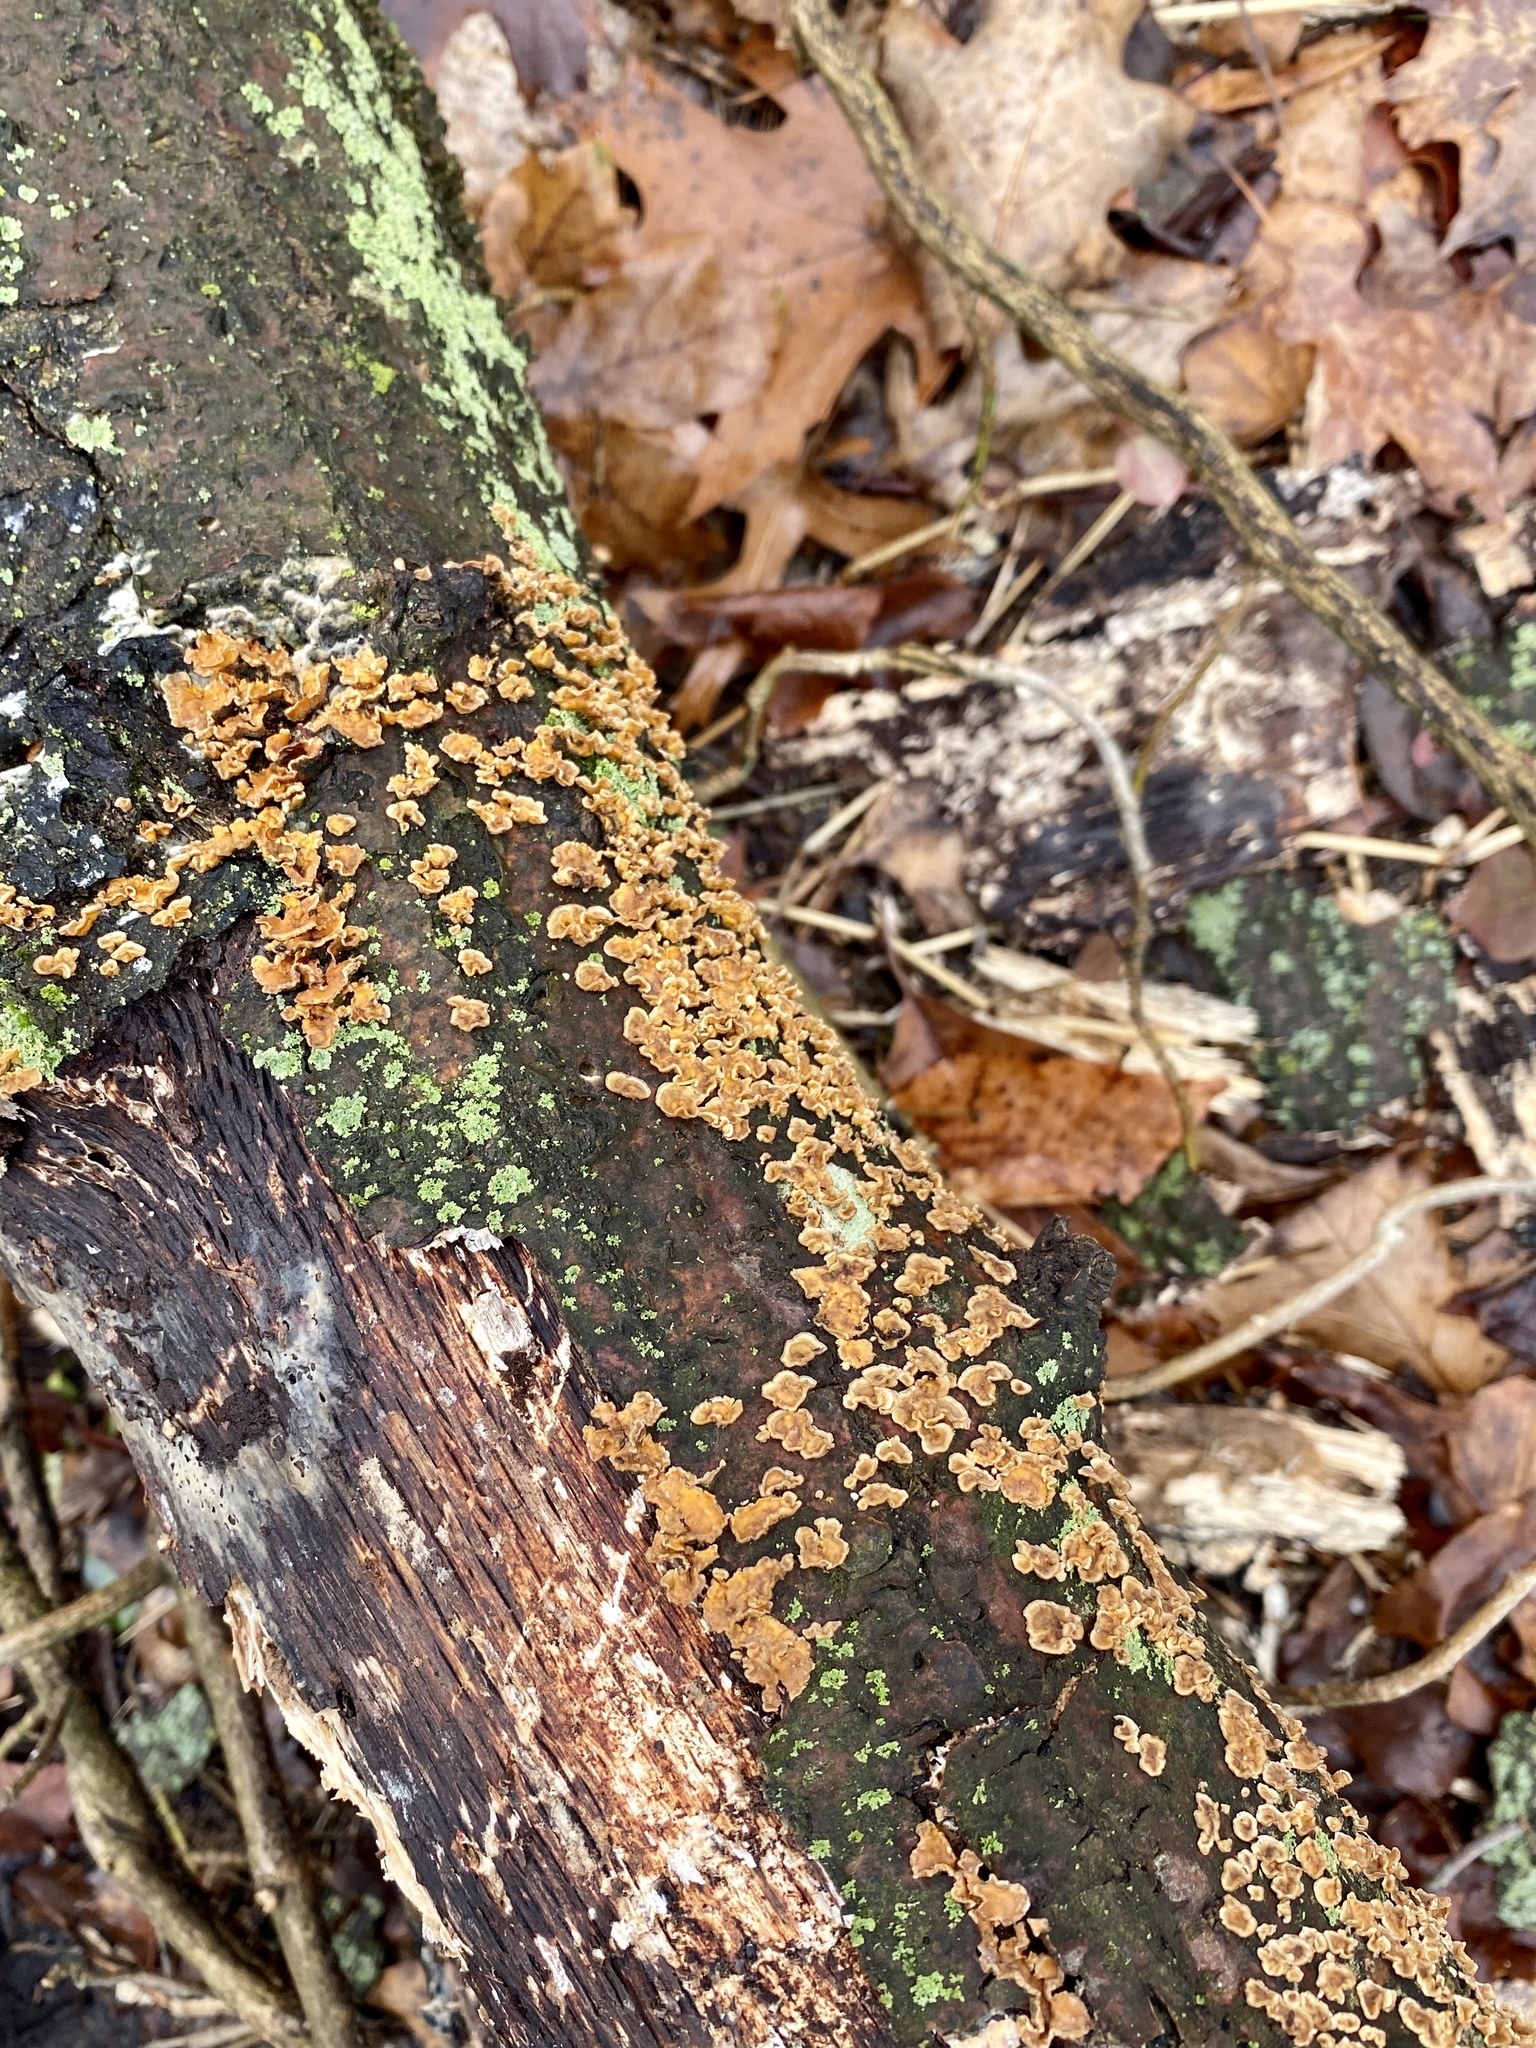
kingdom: Fungi
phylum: Basidiomycota
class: Agaricomycetes
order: Russulales
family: Stereaceae
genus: Stereum
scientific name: Stereum complicatum
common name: Crowded parchment
